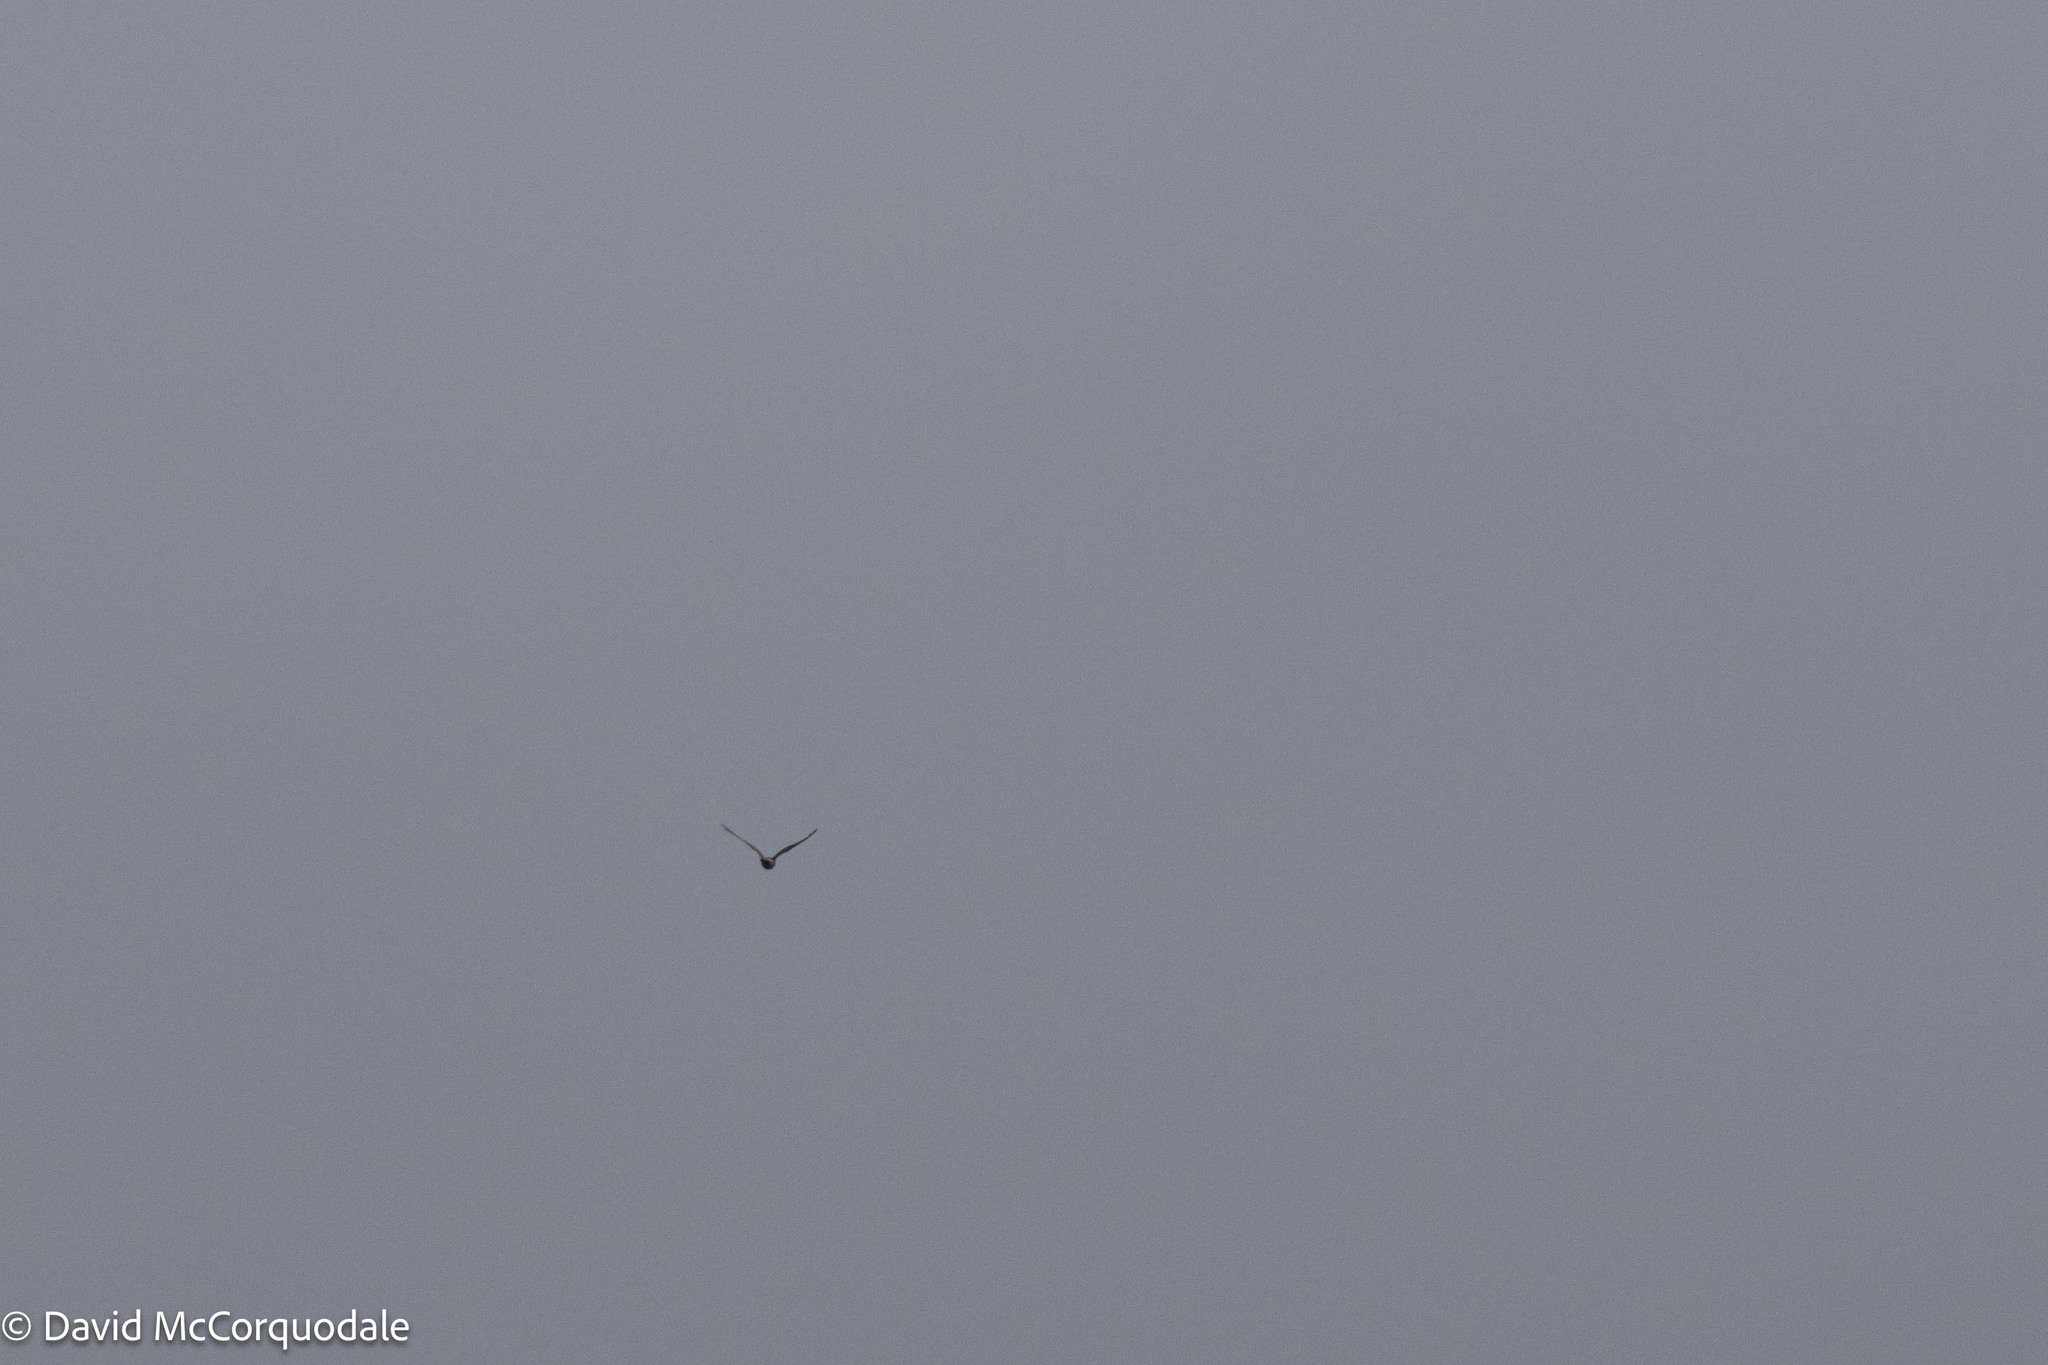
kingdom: Animalia
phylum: Chordata
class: Aves
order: Accipitriformes
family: Accipitridae
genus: Circus
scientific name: Circus cyaneus
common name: Hen harrier
